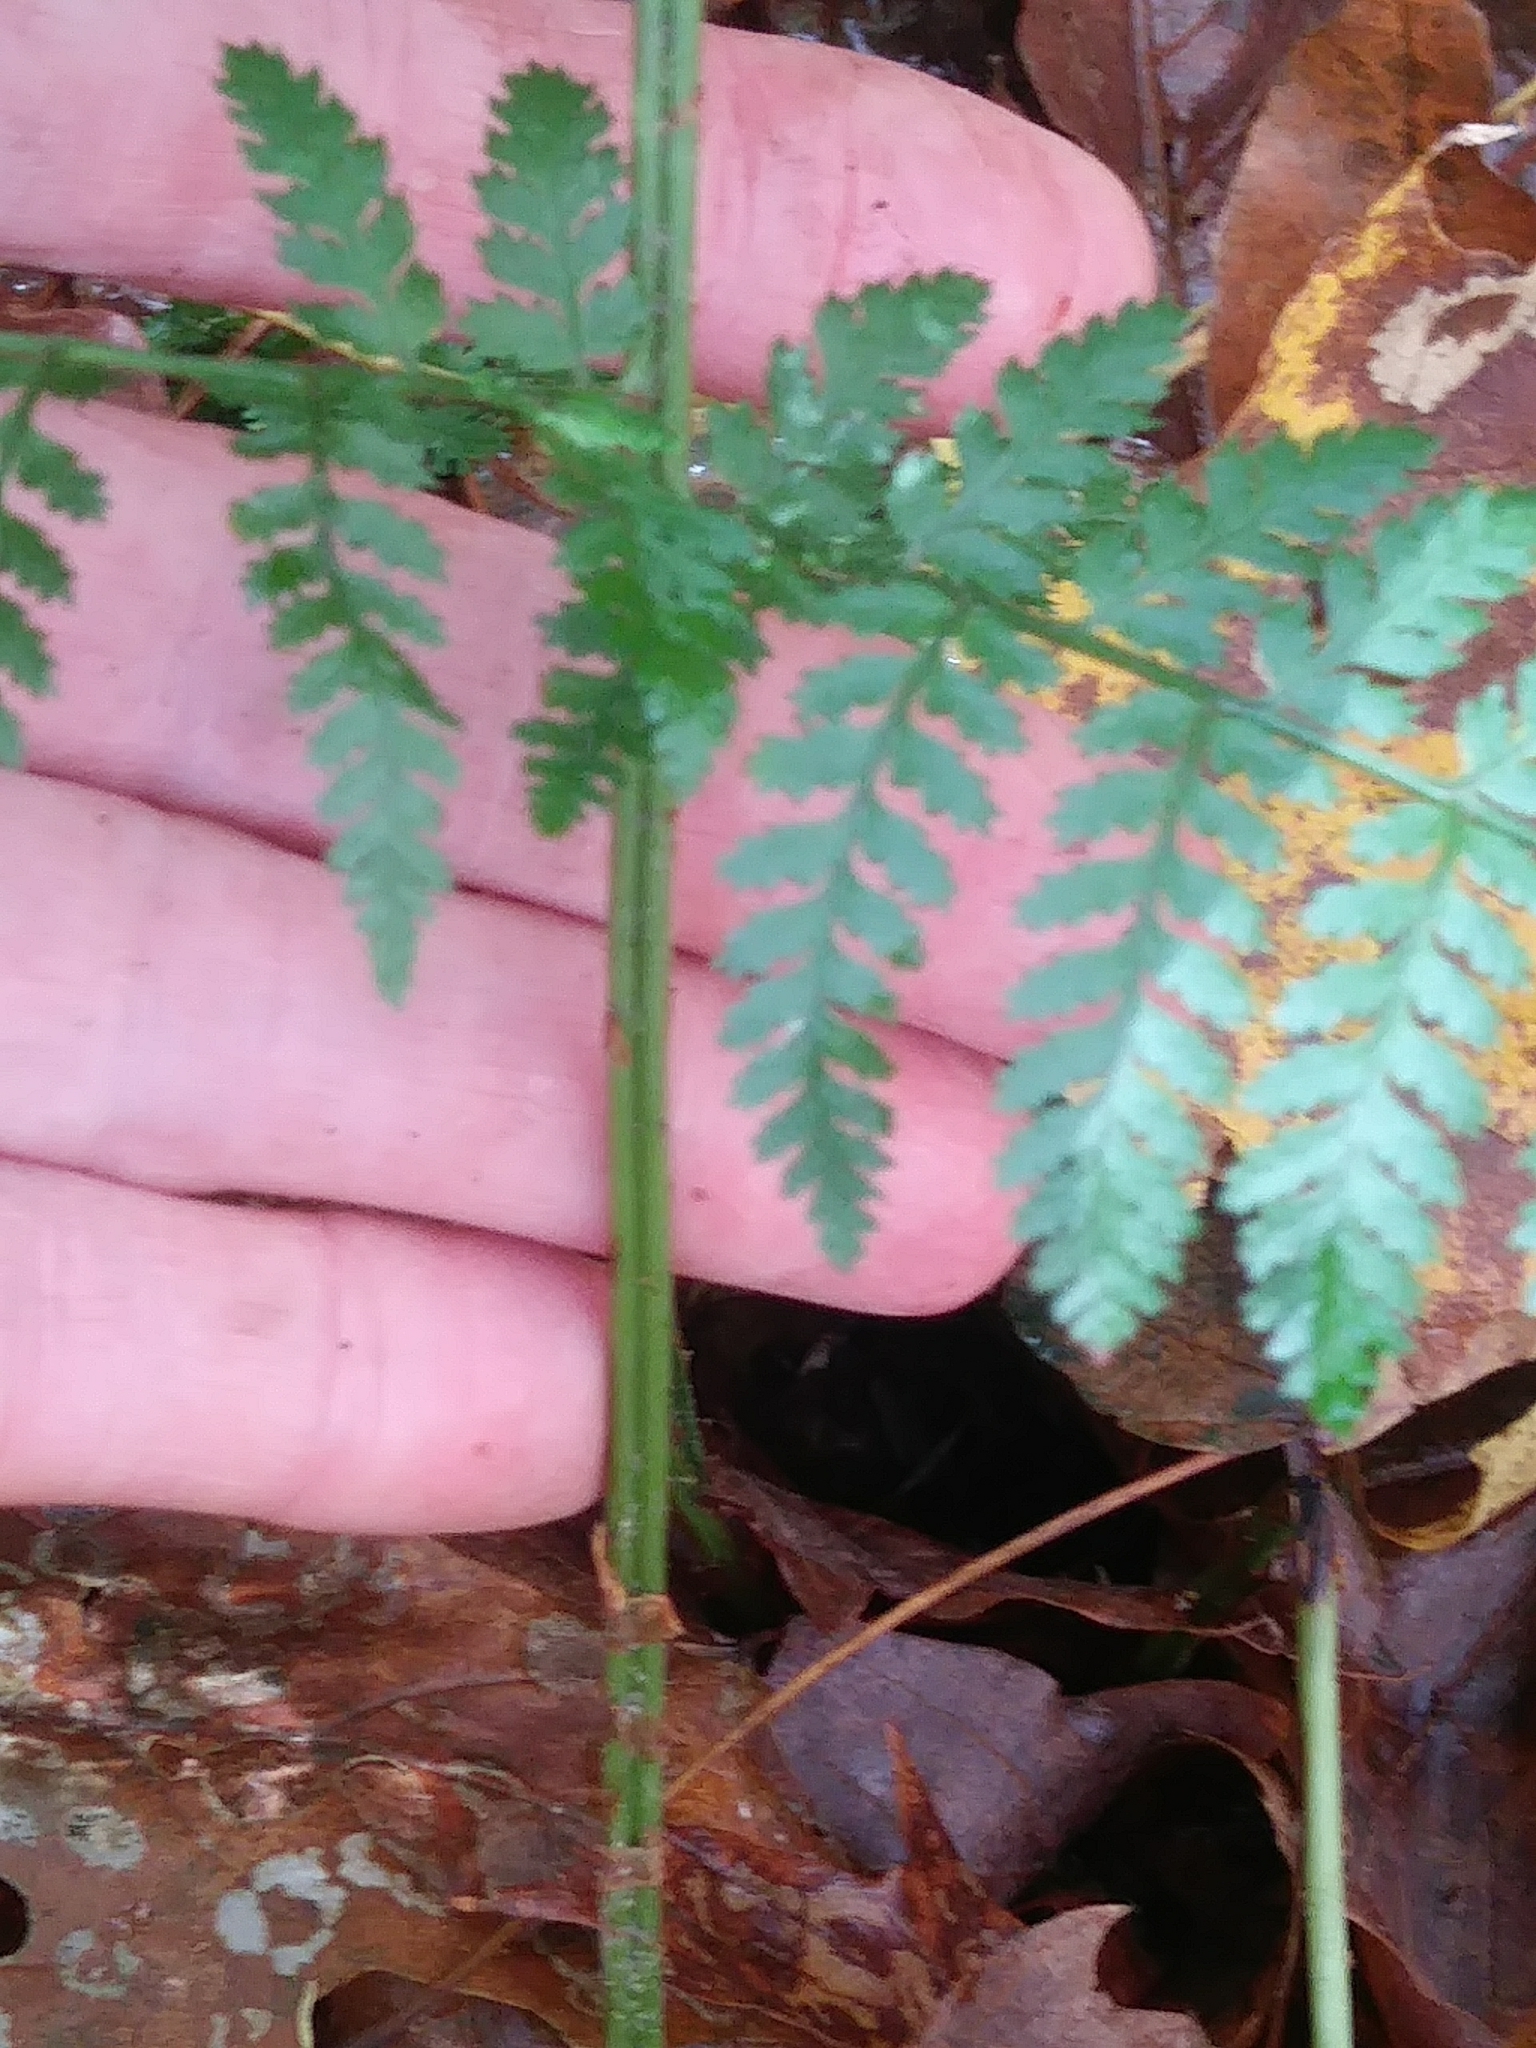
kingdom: Plantae
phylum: Tracheophyta
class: Polypodiopsida
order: Polypodiales
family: Dryopteridaceae
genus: Dryopteris
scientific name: Dryopteris intermedia
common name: Evergreen wood fern
